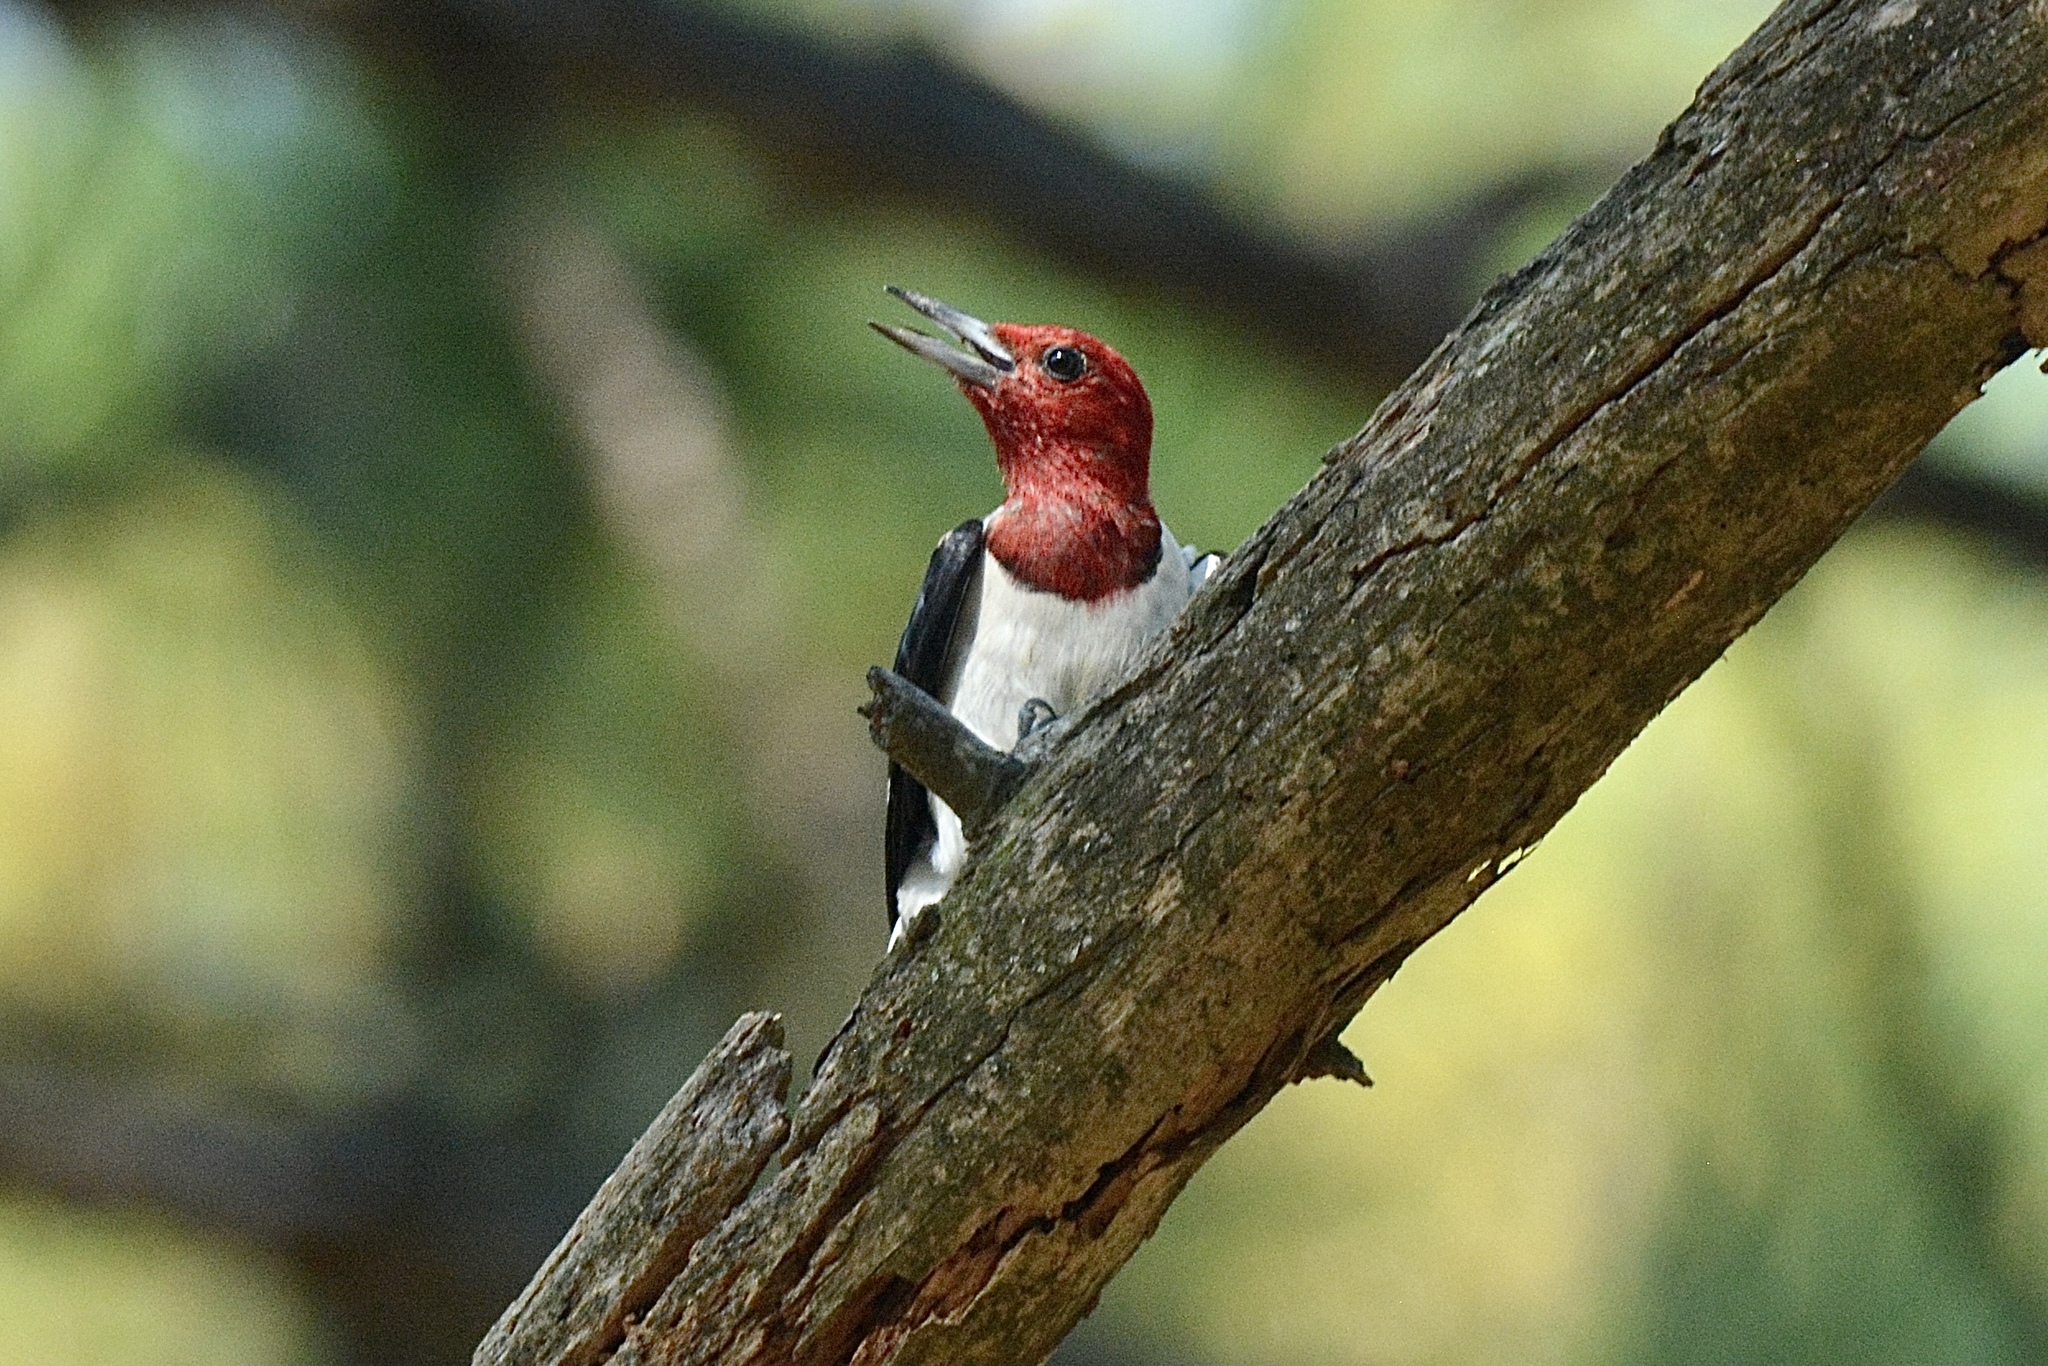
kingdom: Animalia
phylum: Chordata
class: Aves
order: Piciformes
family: Picidae
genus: Melanerpes
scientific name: Melanerpes erythrocephalus
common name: Red-headed woodpecker
